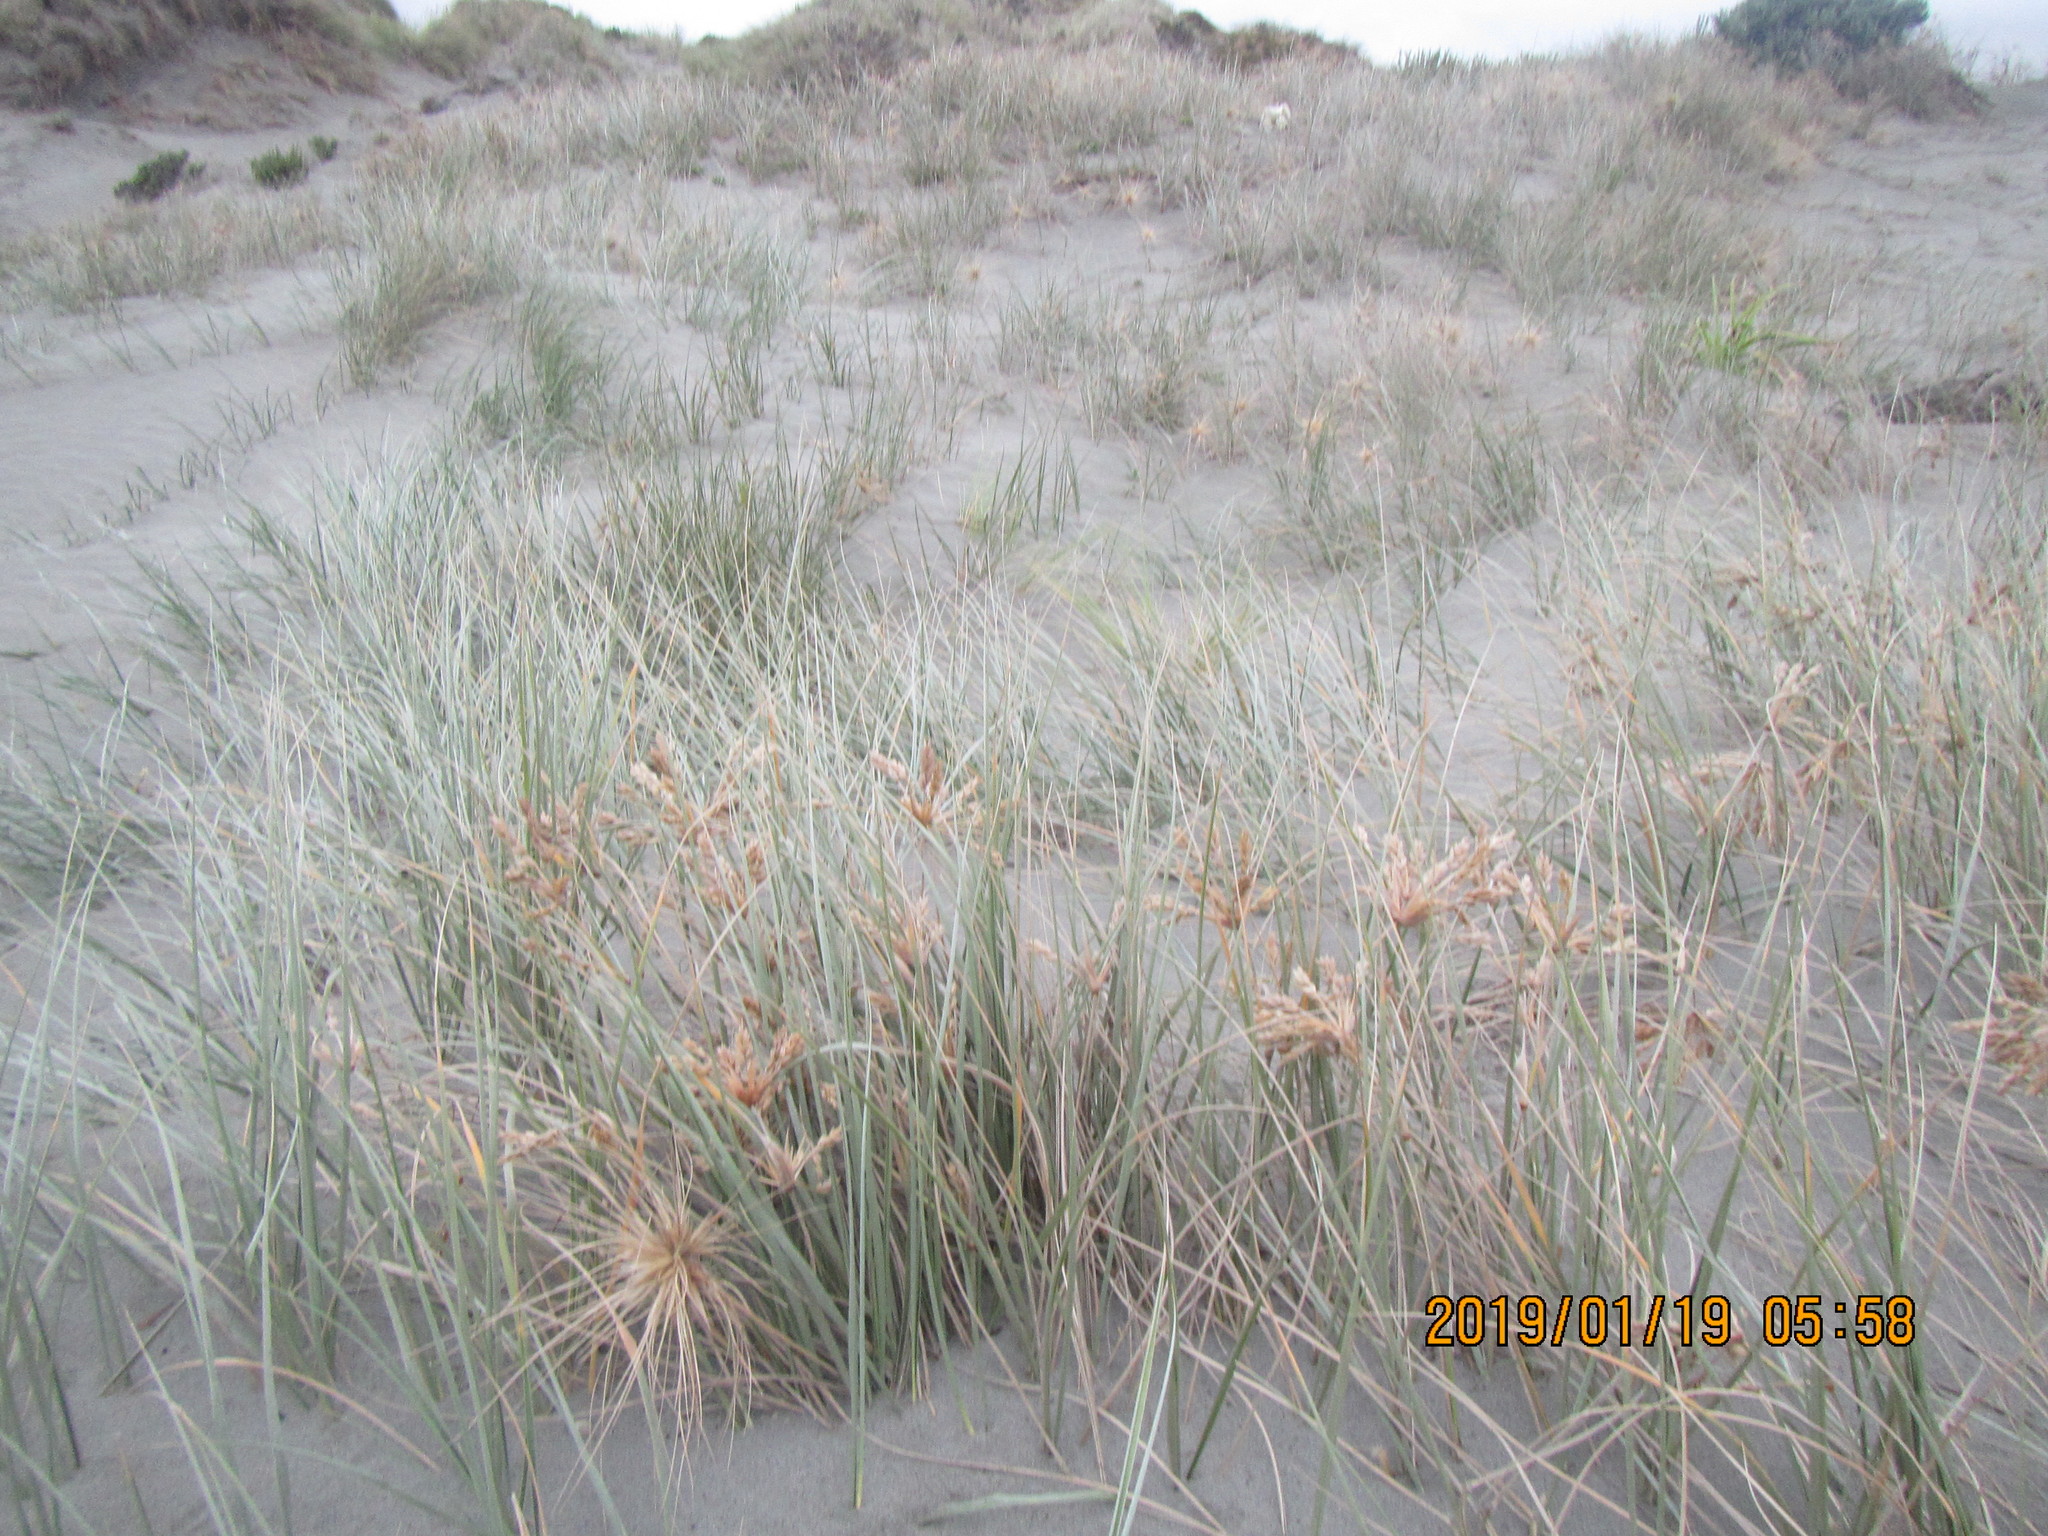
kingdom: Plantae
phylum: Tracheophyta
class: Liliopsida
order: Poales
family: Poaceae
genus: Spinifex
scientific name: Spinifex sericeus
